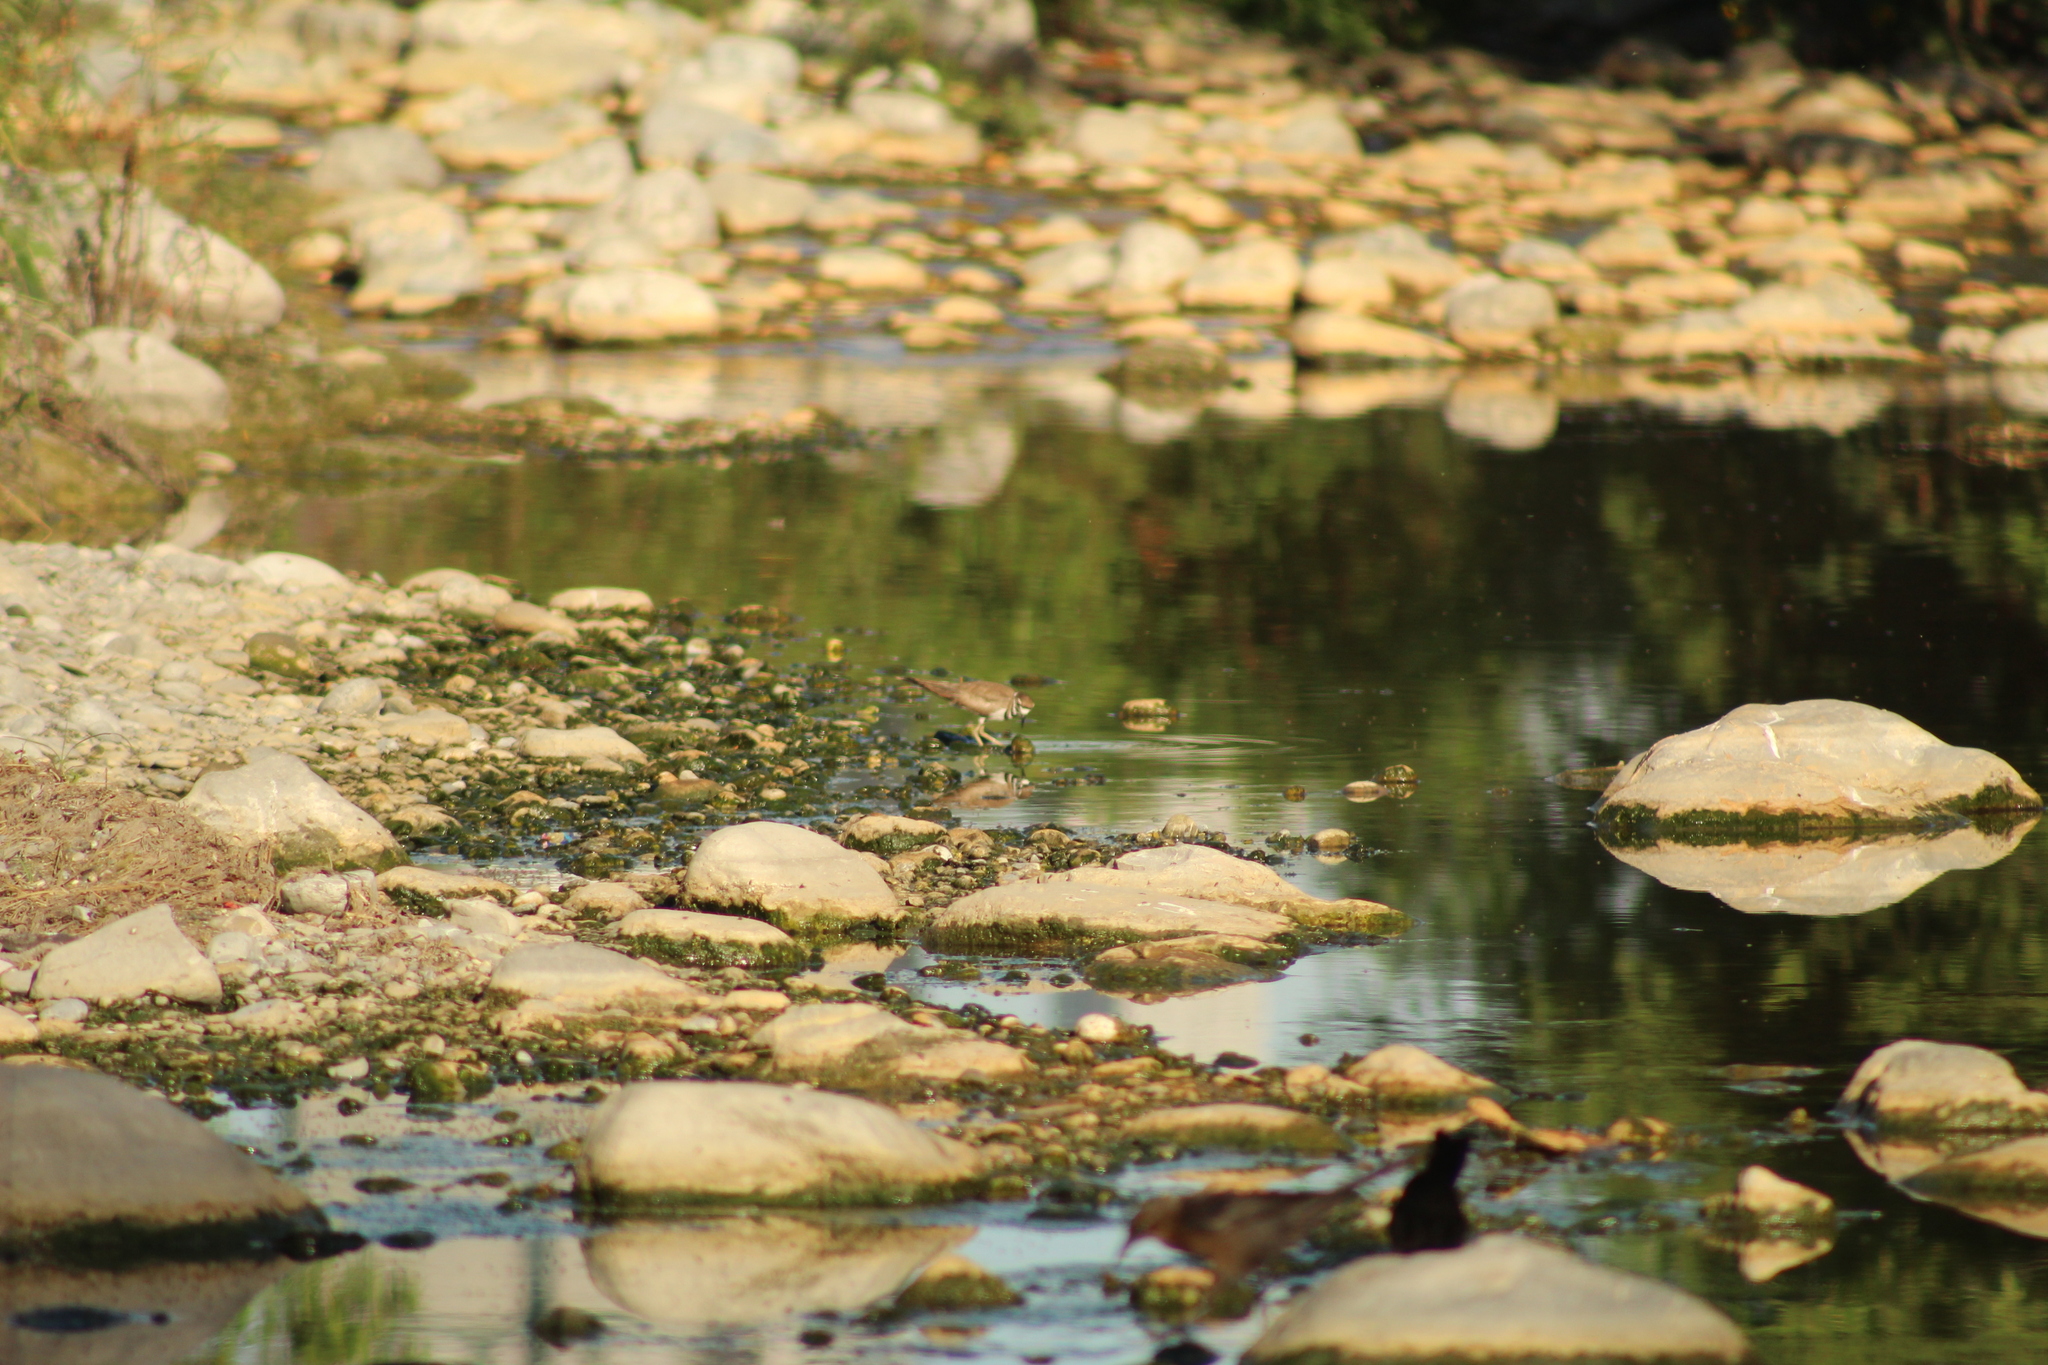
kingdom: Animalia
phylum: Chordata
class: Aves
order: Charadriiformes
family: Charadriidae
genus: Charadrius
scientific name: Charadrius vociferus
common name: Killdeer
